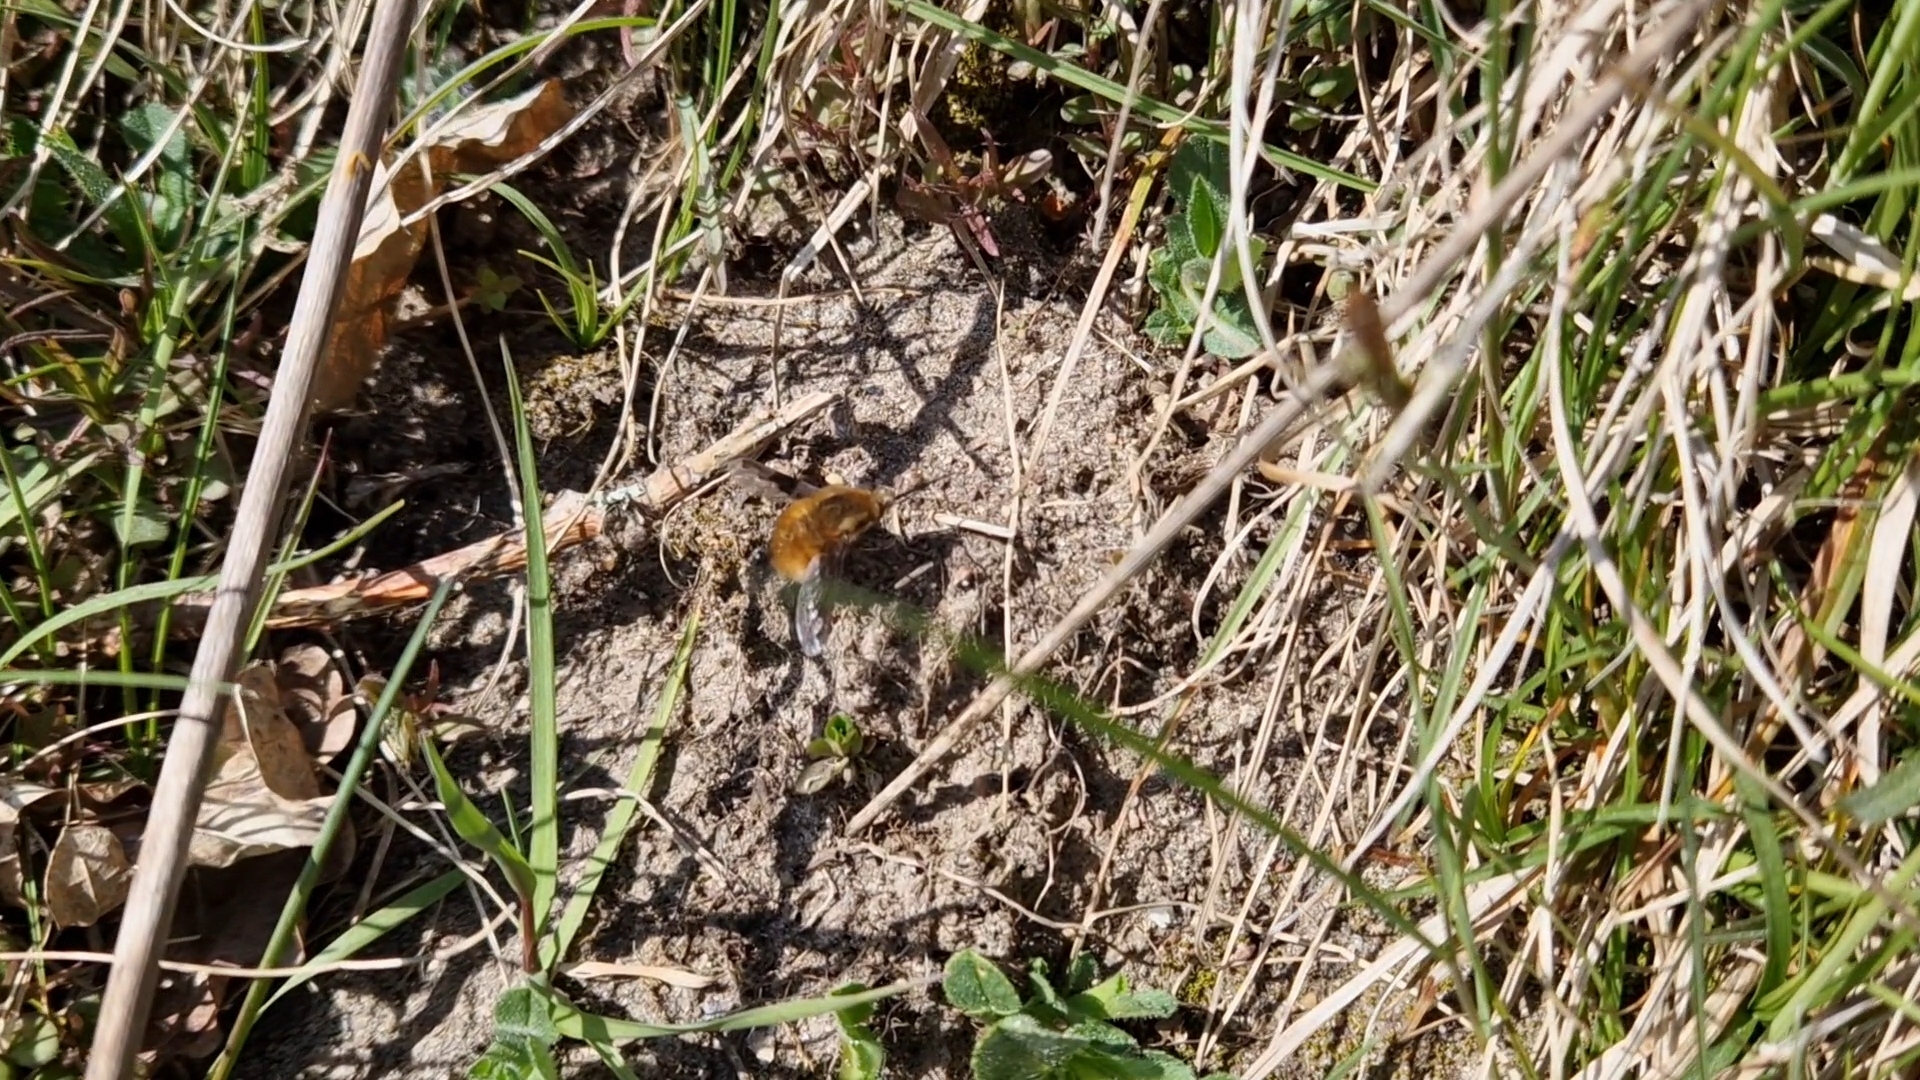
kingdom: Animalia
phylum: Arthropoda
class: Insecta
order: Diptera
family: Bombyliidae
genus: Bombylius
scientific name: Bombylius major
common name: Bee fly
